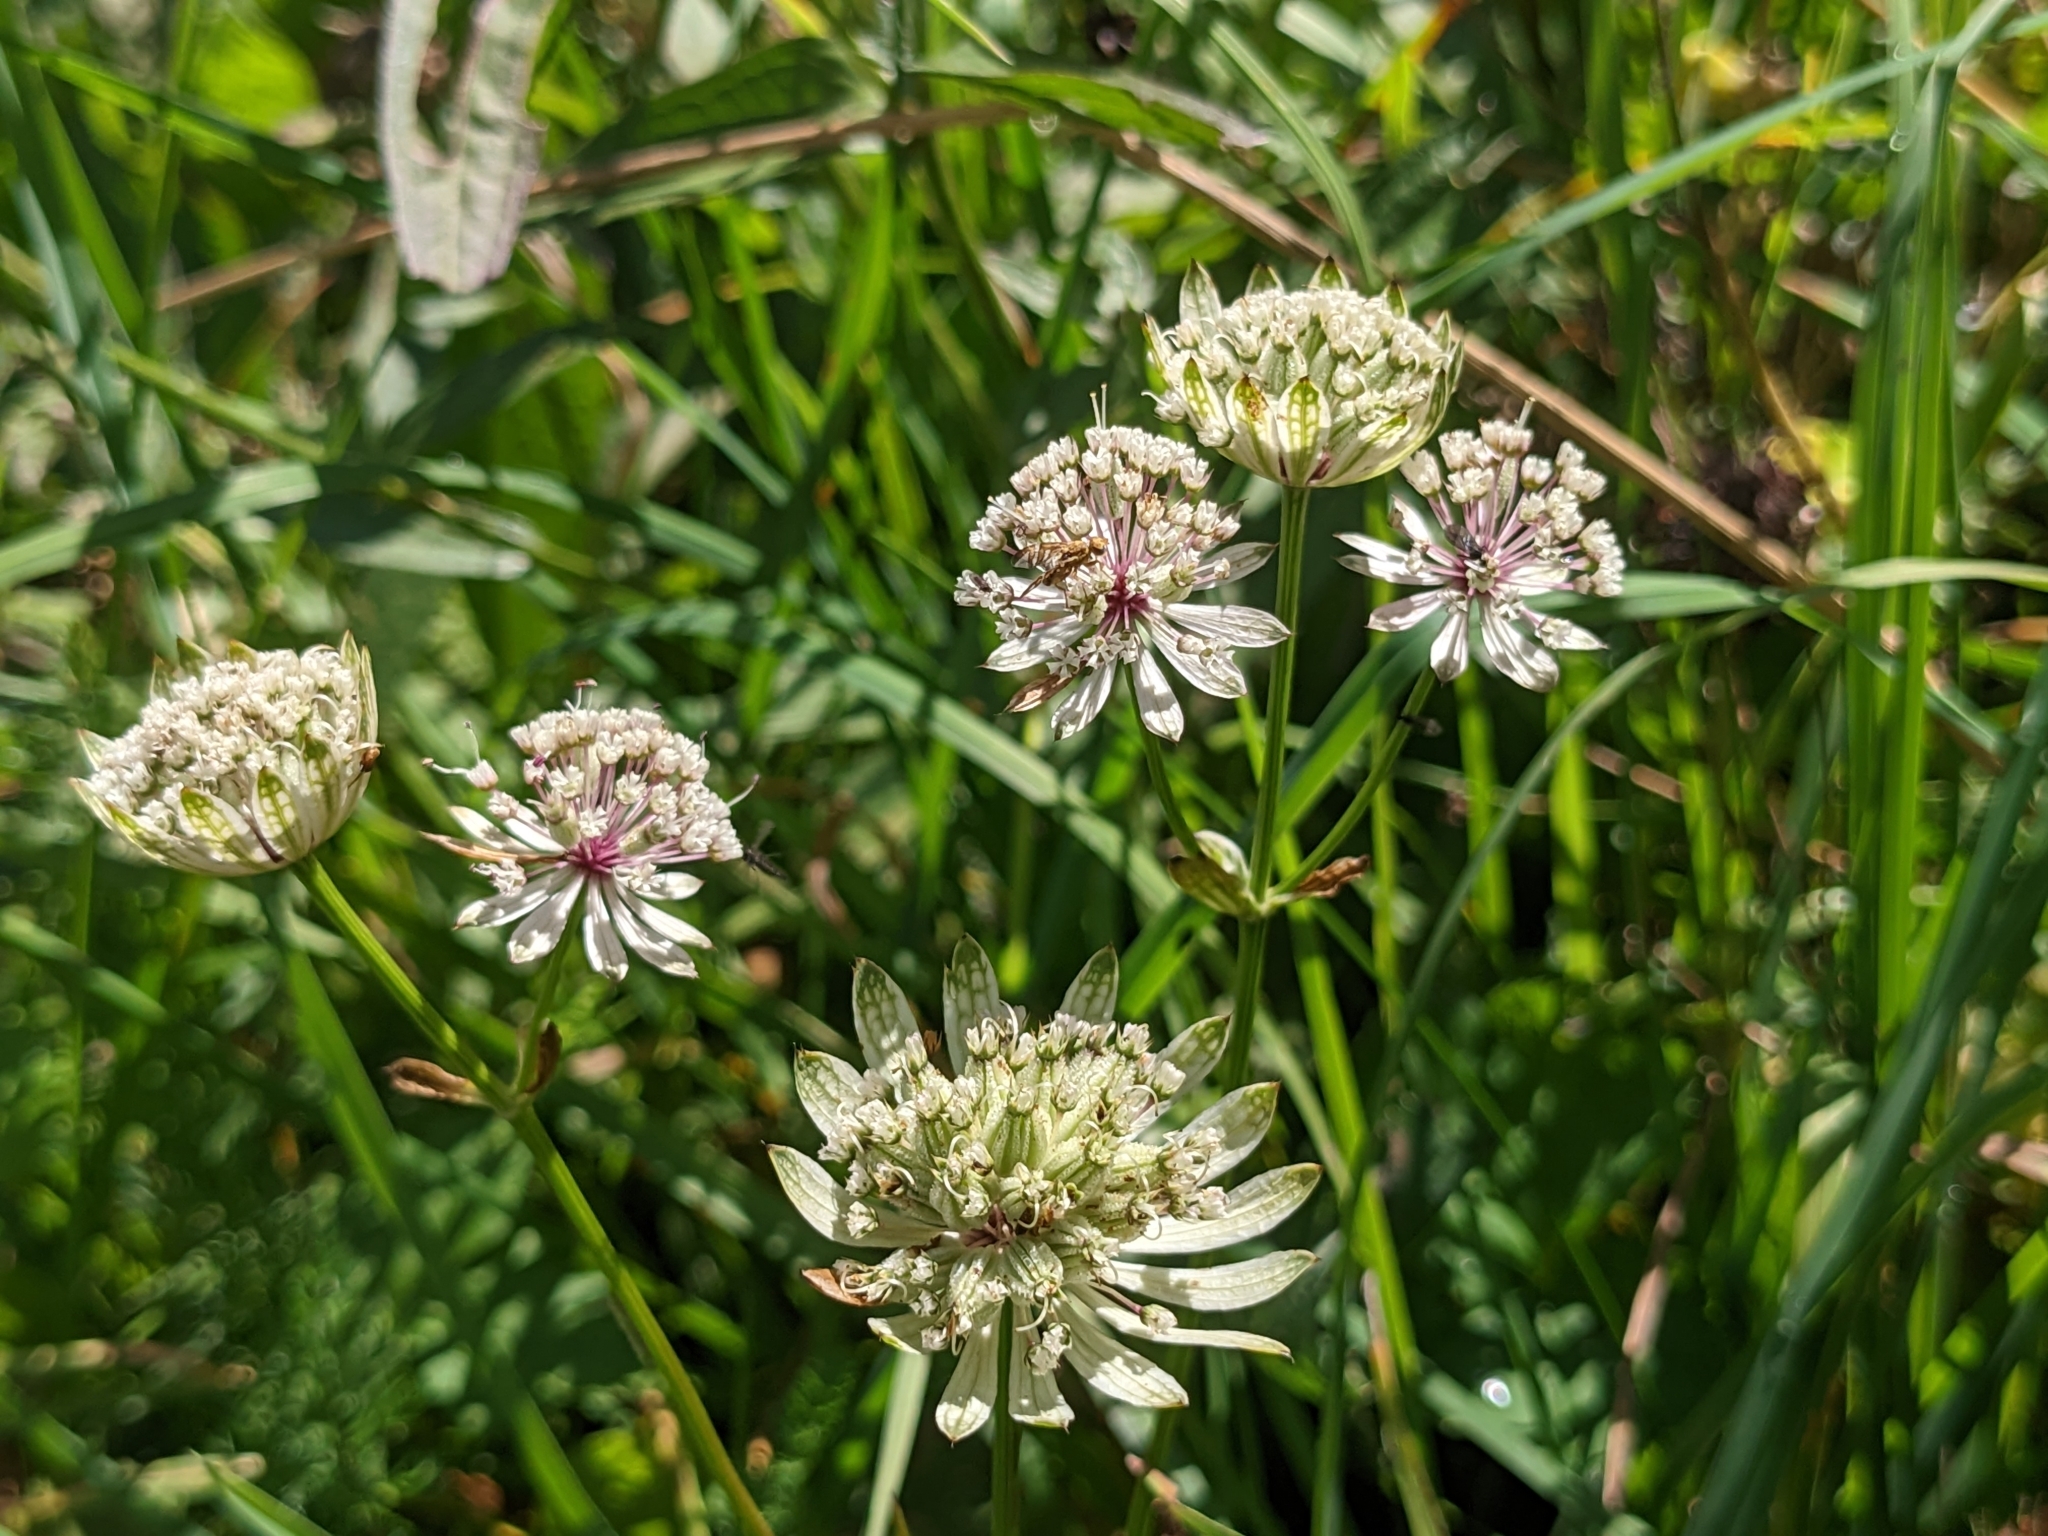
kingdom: Plantae
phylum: Tracheophyta
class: Magnoliopsida
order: Apiales
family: Apiaceae
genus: Astrantia
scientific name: Astrantia major
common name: Greater masterwort
